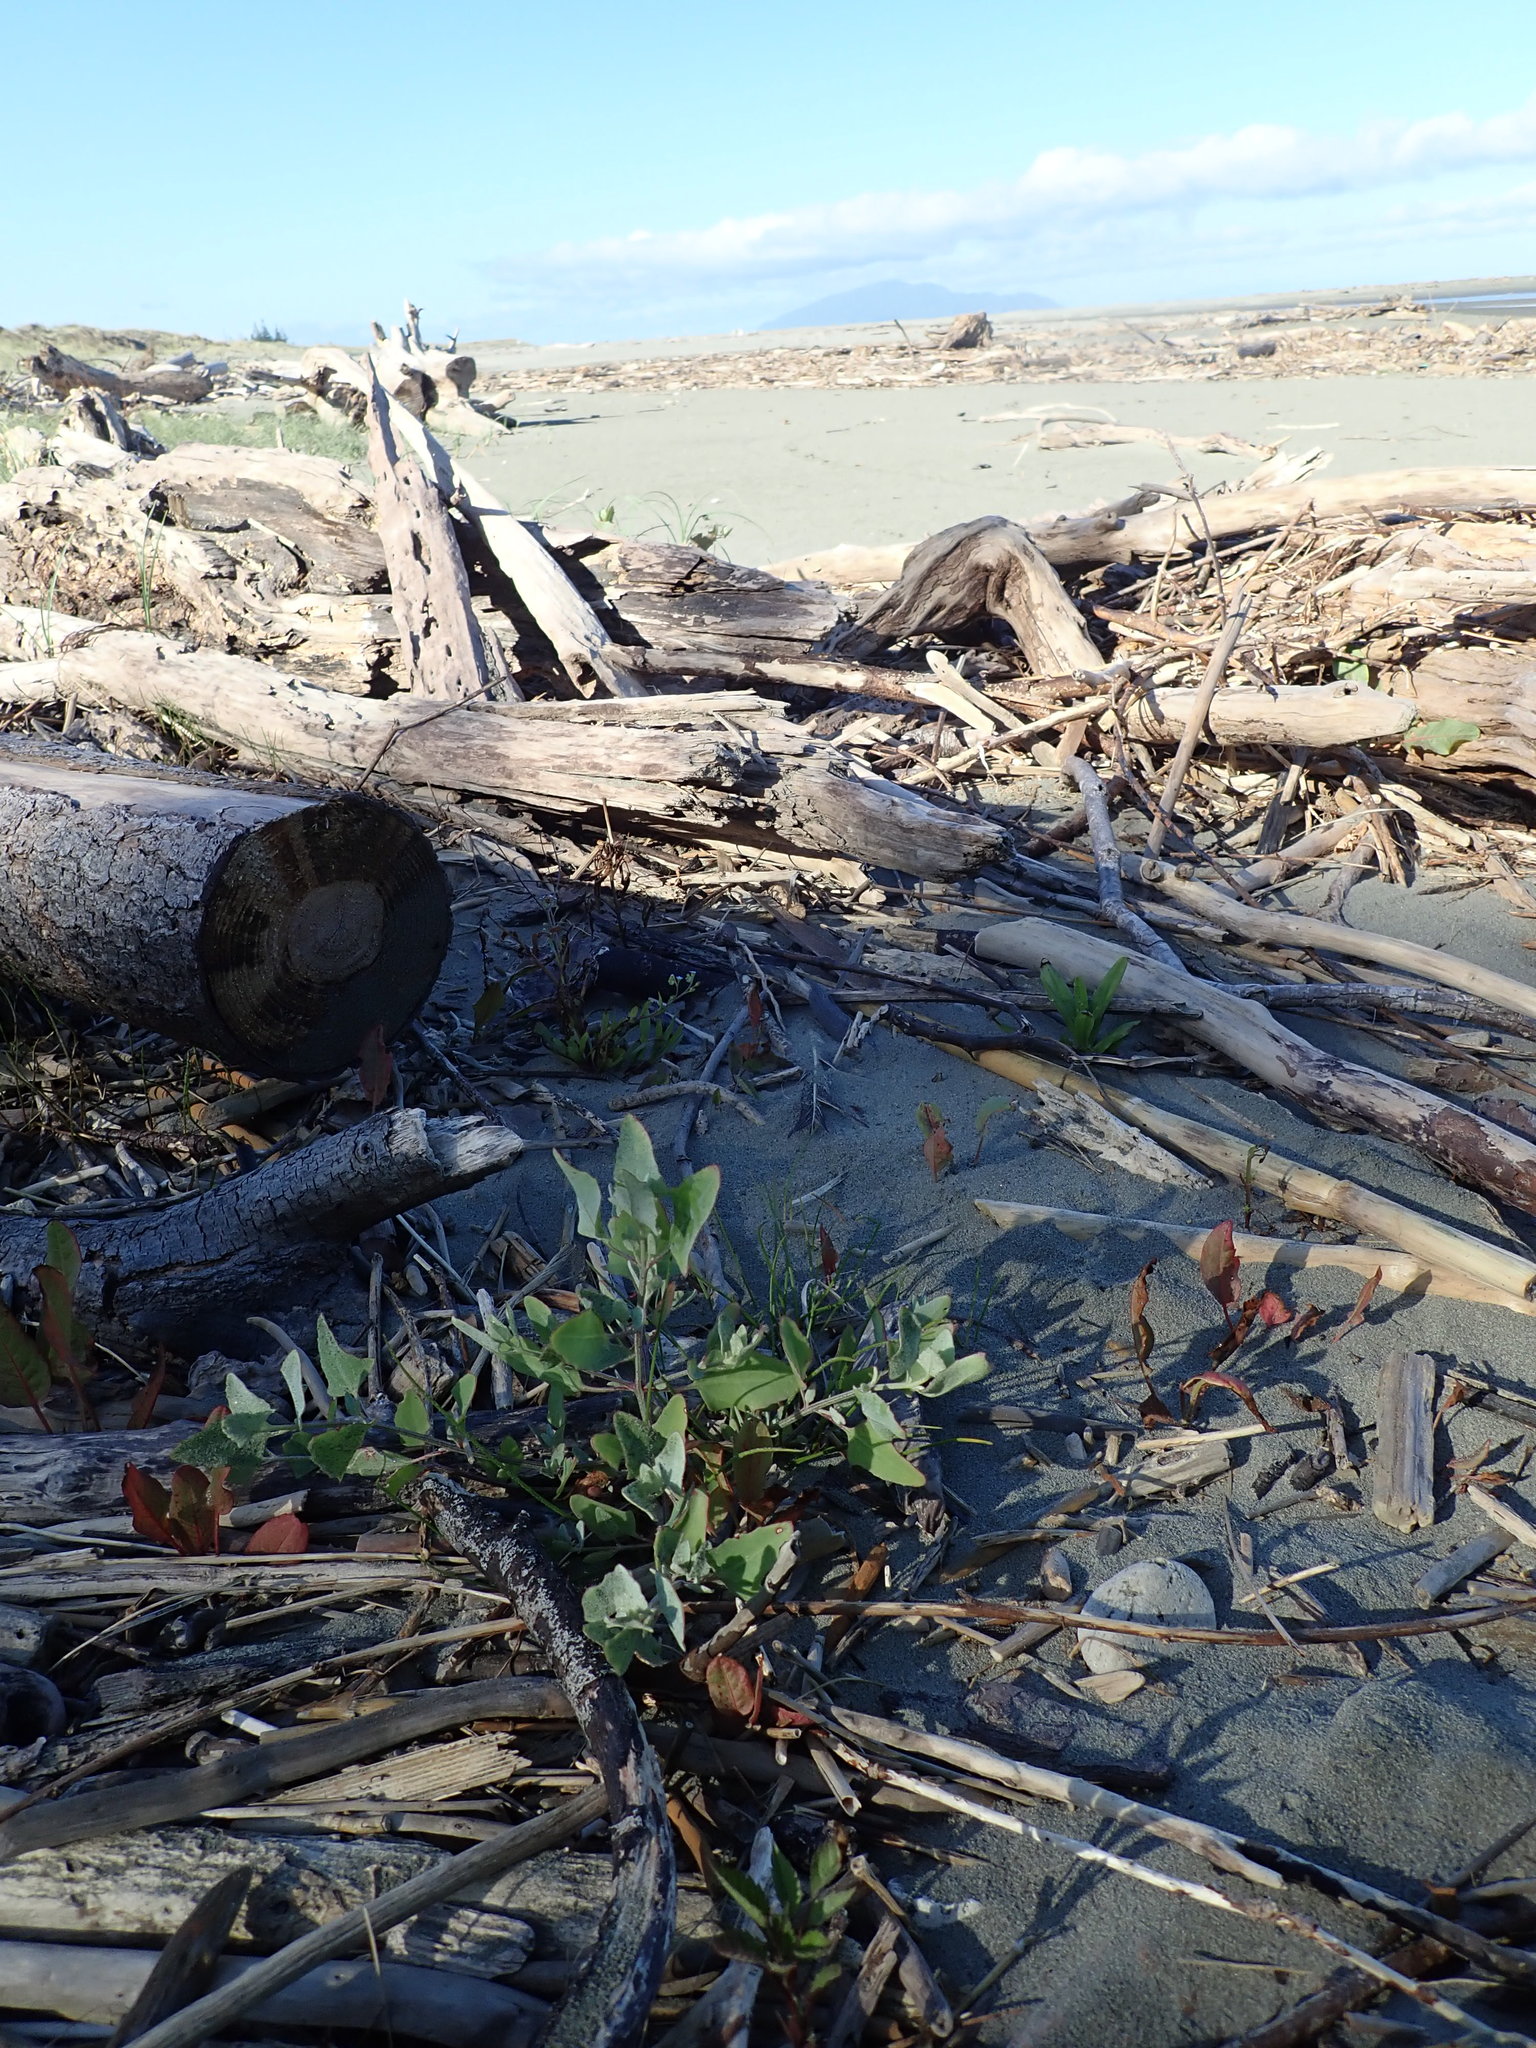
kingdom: Plantae
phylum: Tracheophyta
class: Magnoliopsida
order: Caryophyllales
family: Amaranthaceae
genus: Atriplex
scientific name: Atriplex prostrata
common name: Spear-leaved orache
